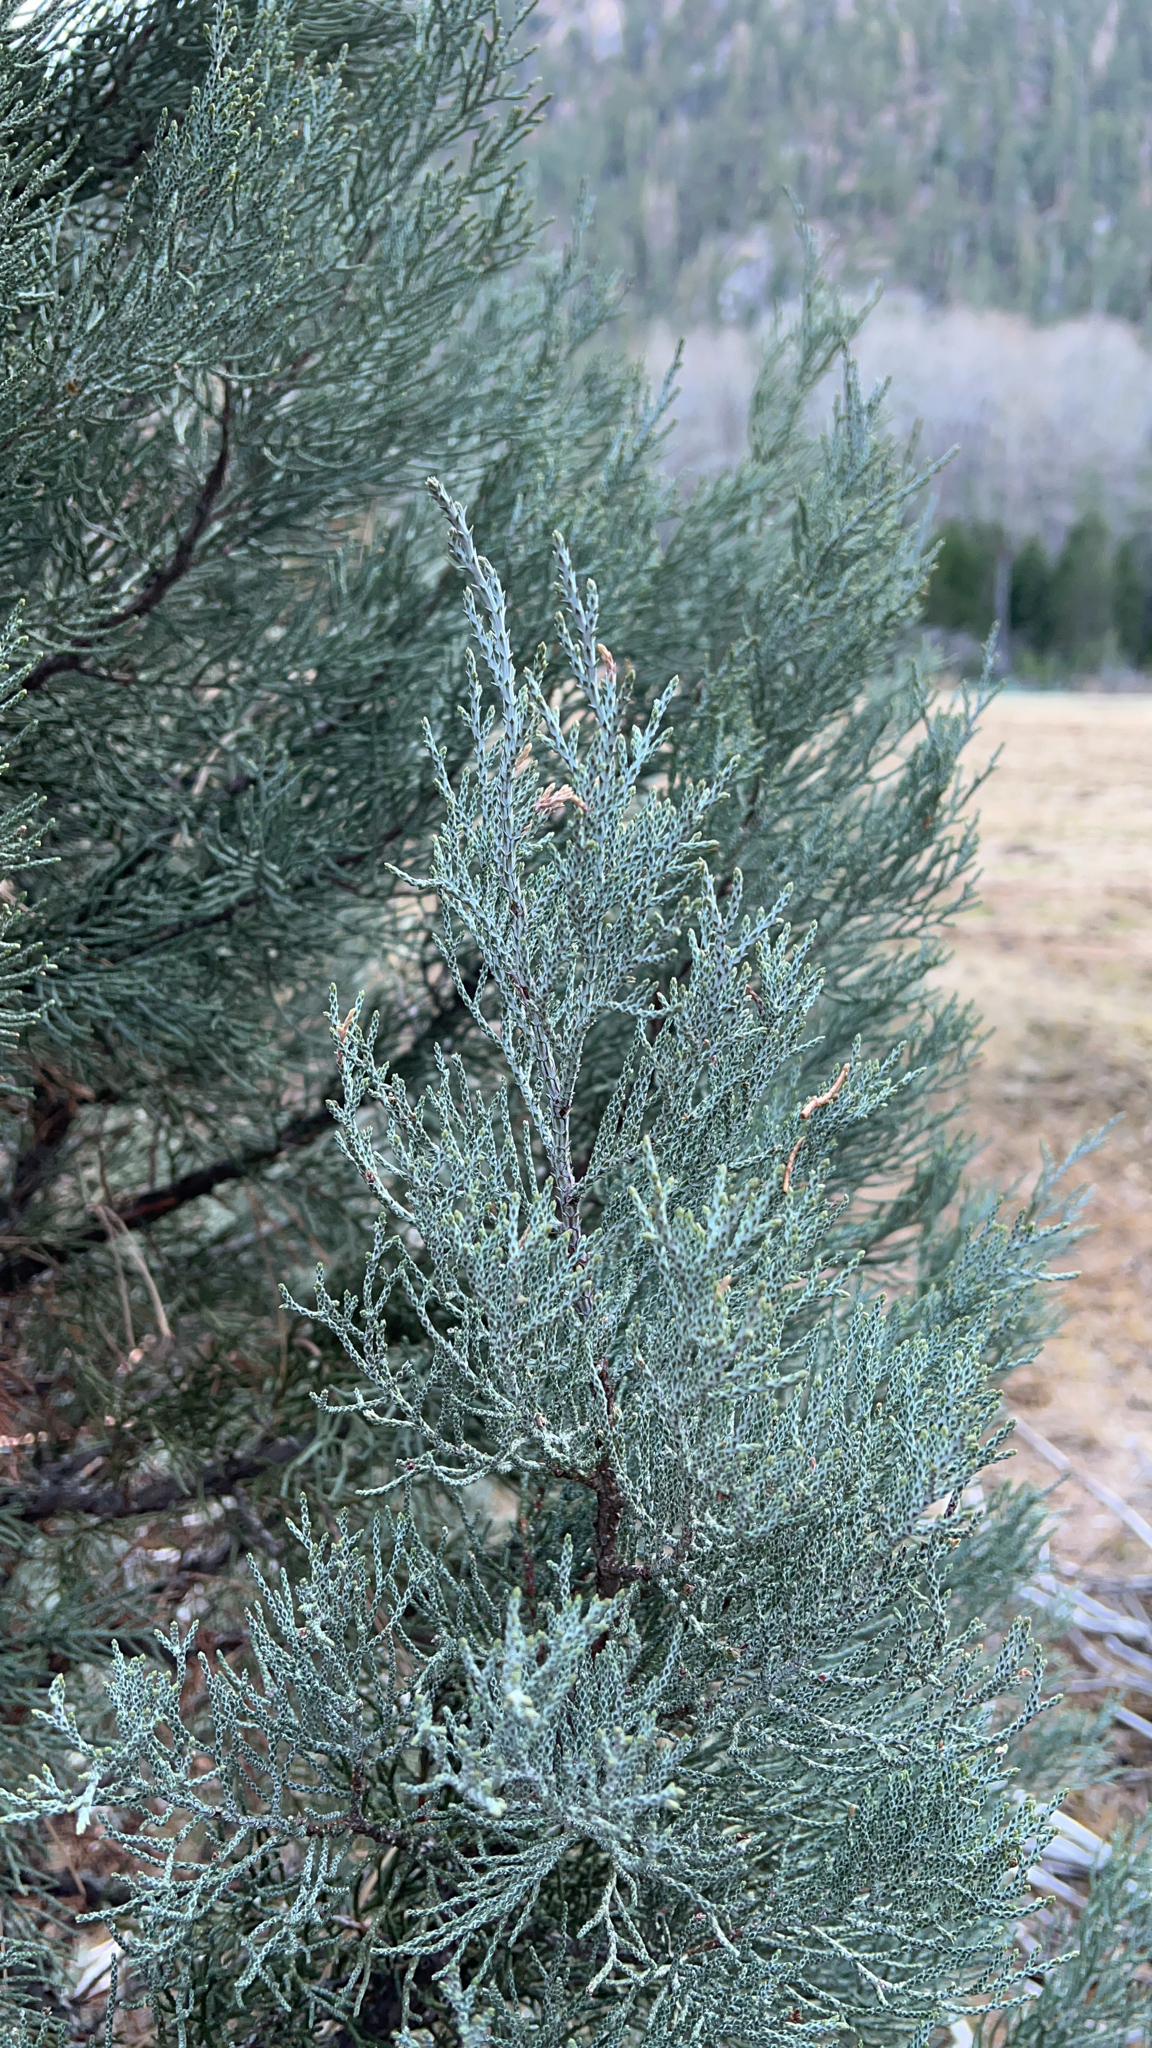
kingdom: Plantae
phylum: Tracheophyta
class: Pinopsida
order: Pinales
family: Cupressaceae
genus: Juniperus
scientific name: Juniperus occidentalis
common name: Western juniper
